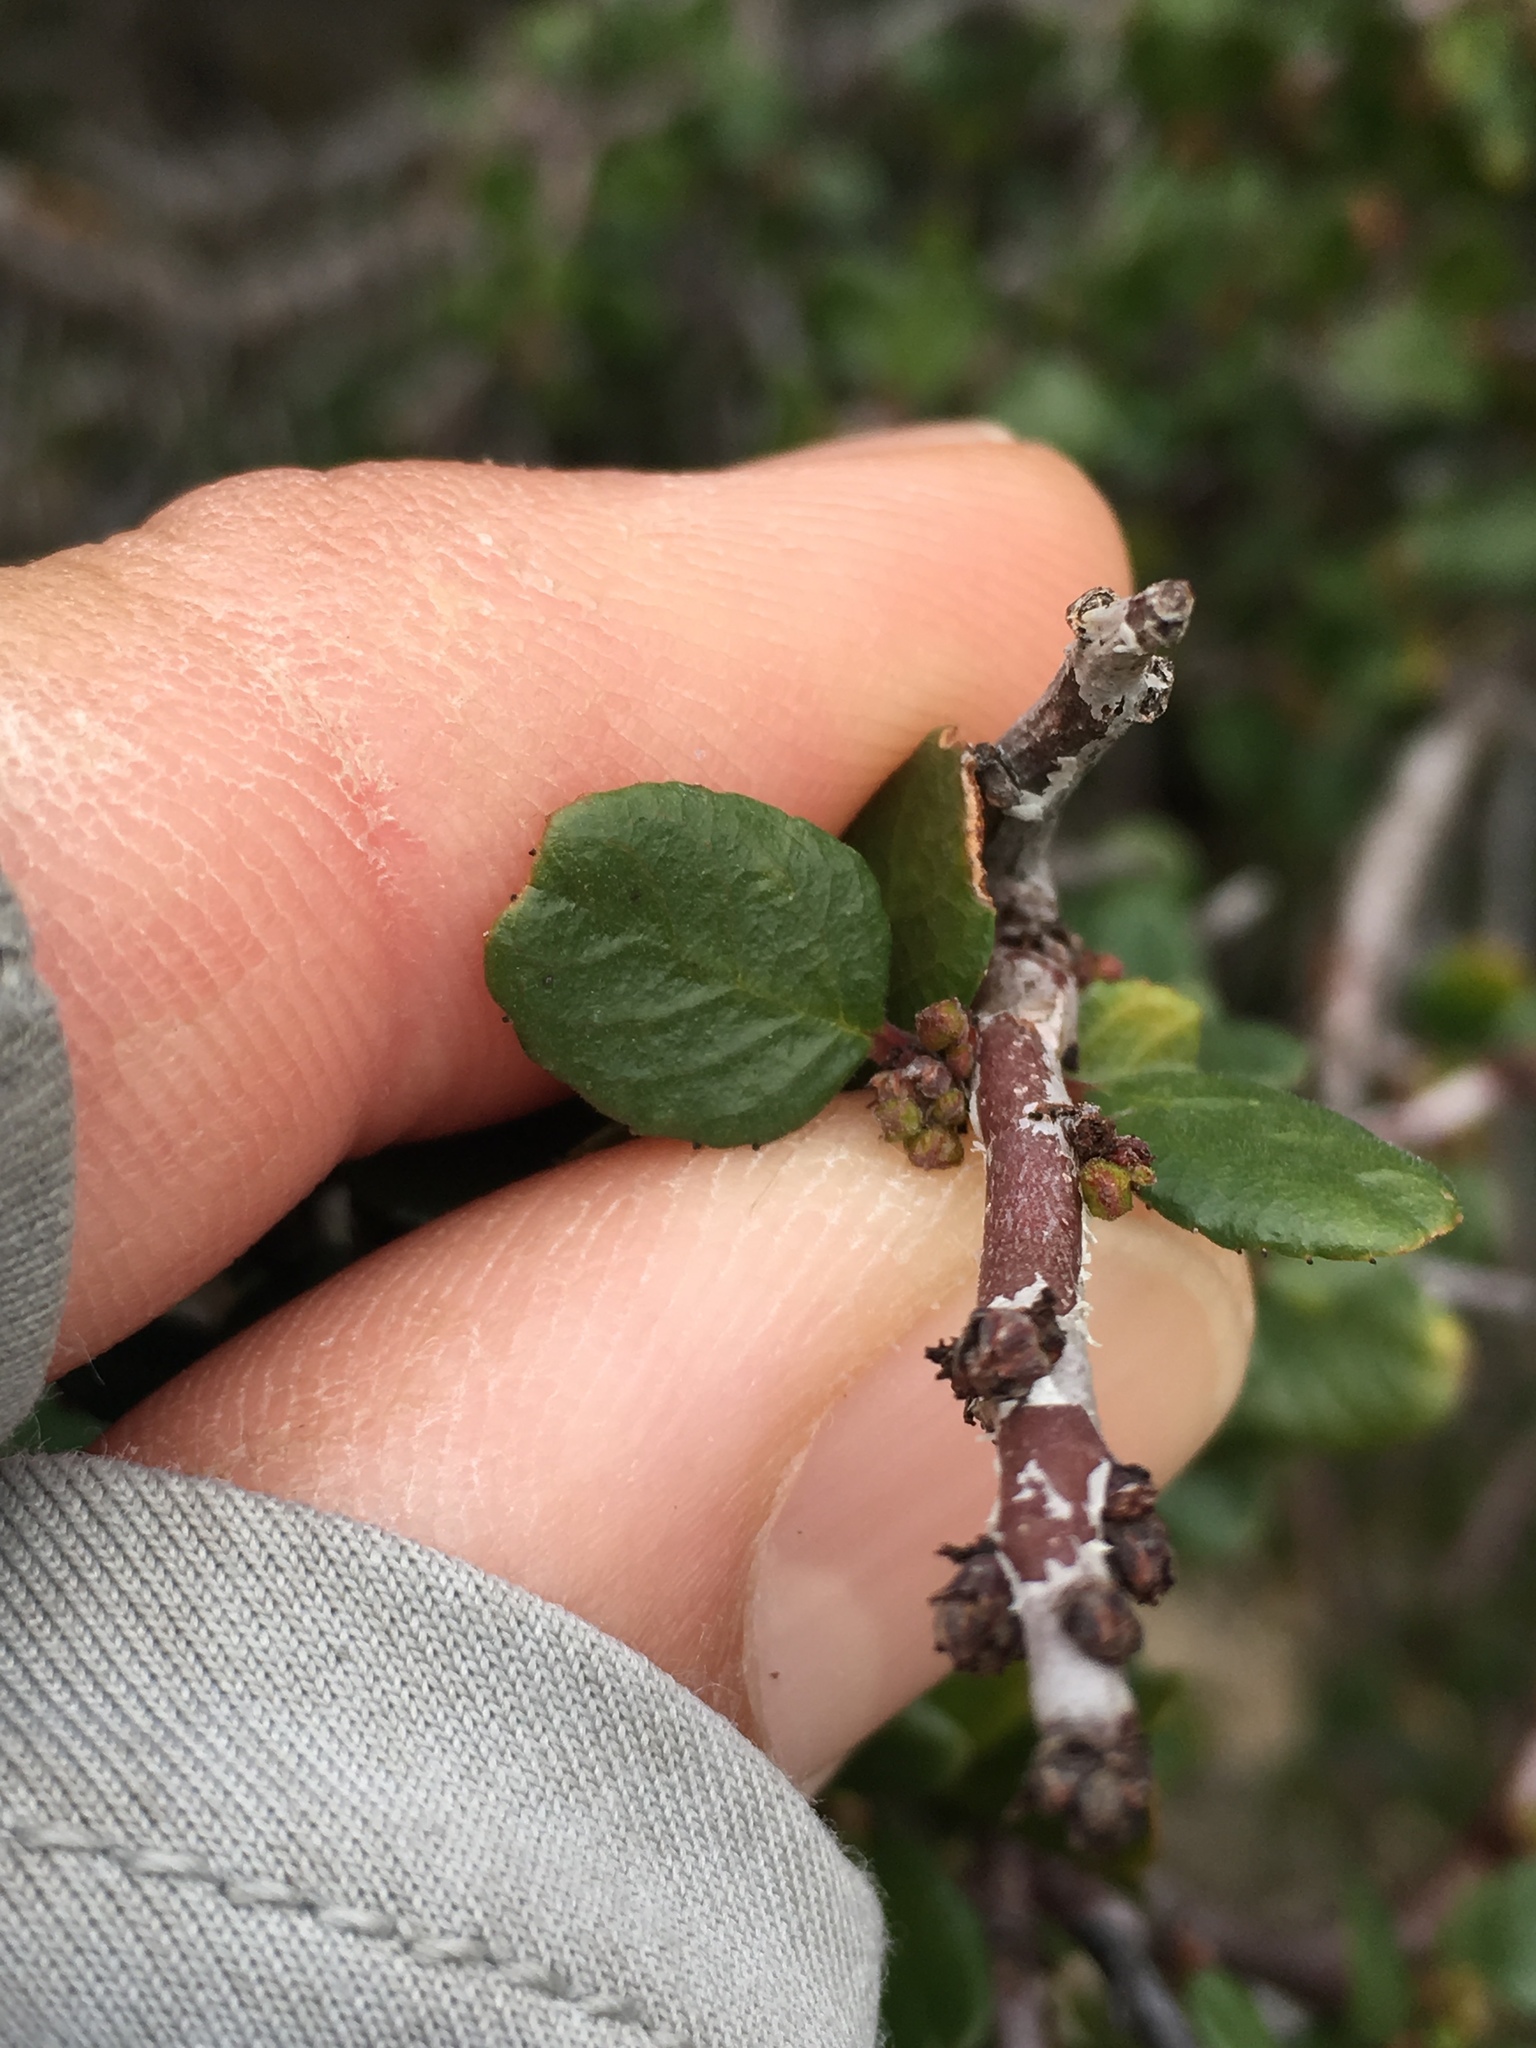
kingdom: Plantae
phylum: Tracheophyta
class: Magnoliopsida
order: Rosales
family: Rhamnaceae
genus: Endotropis
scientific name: Endotropis crocea
